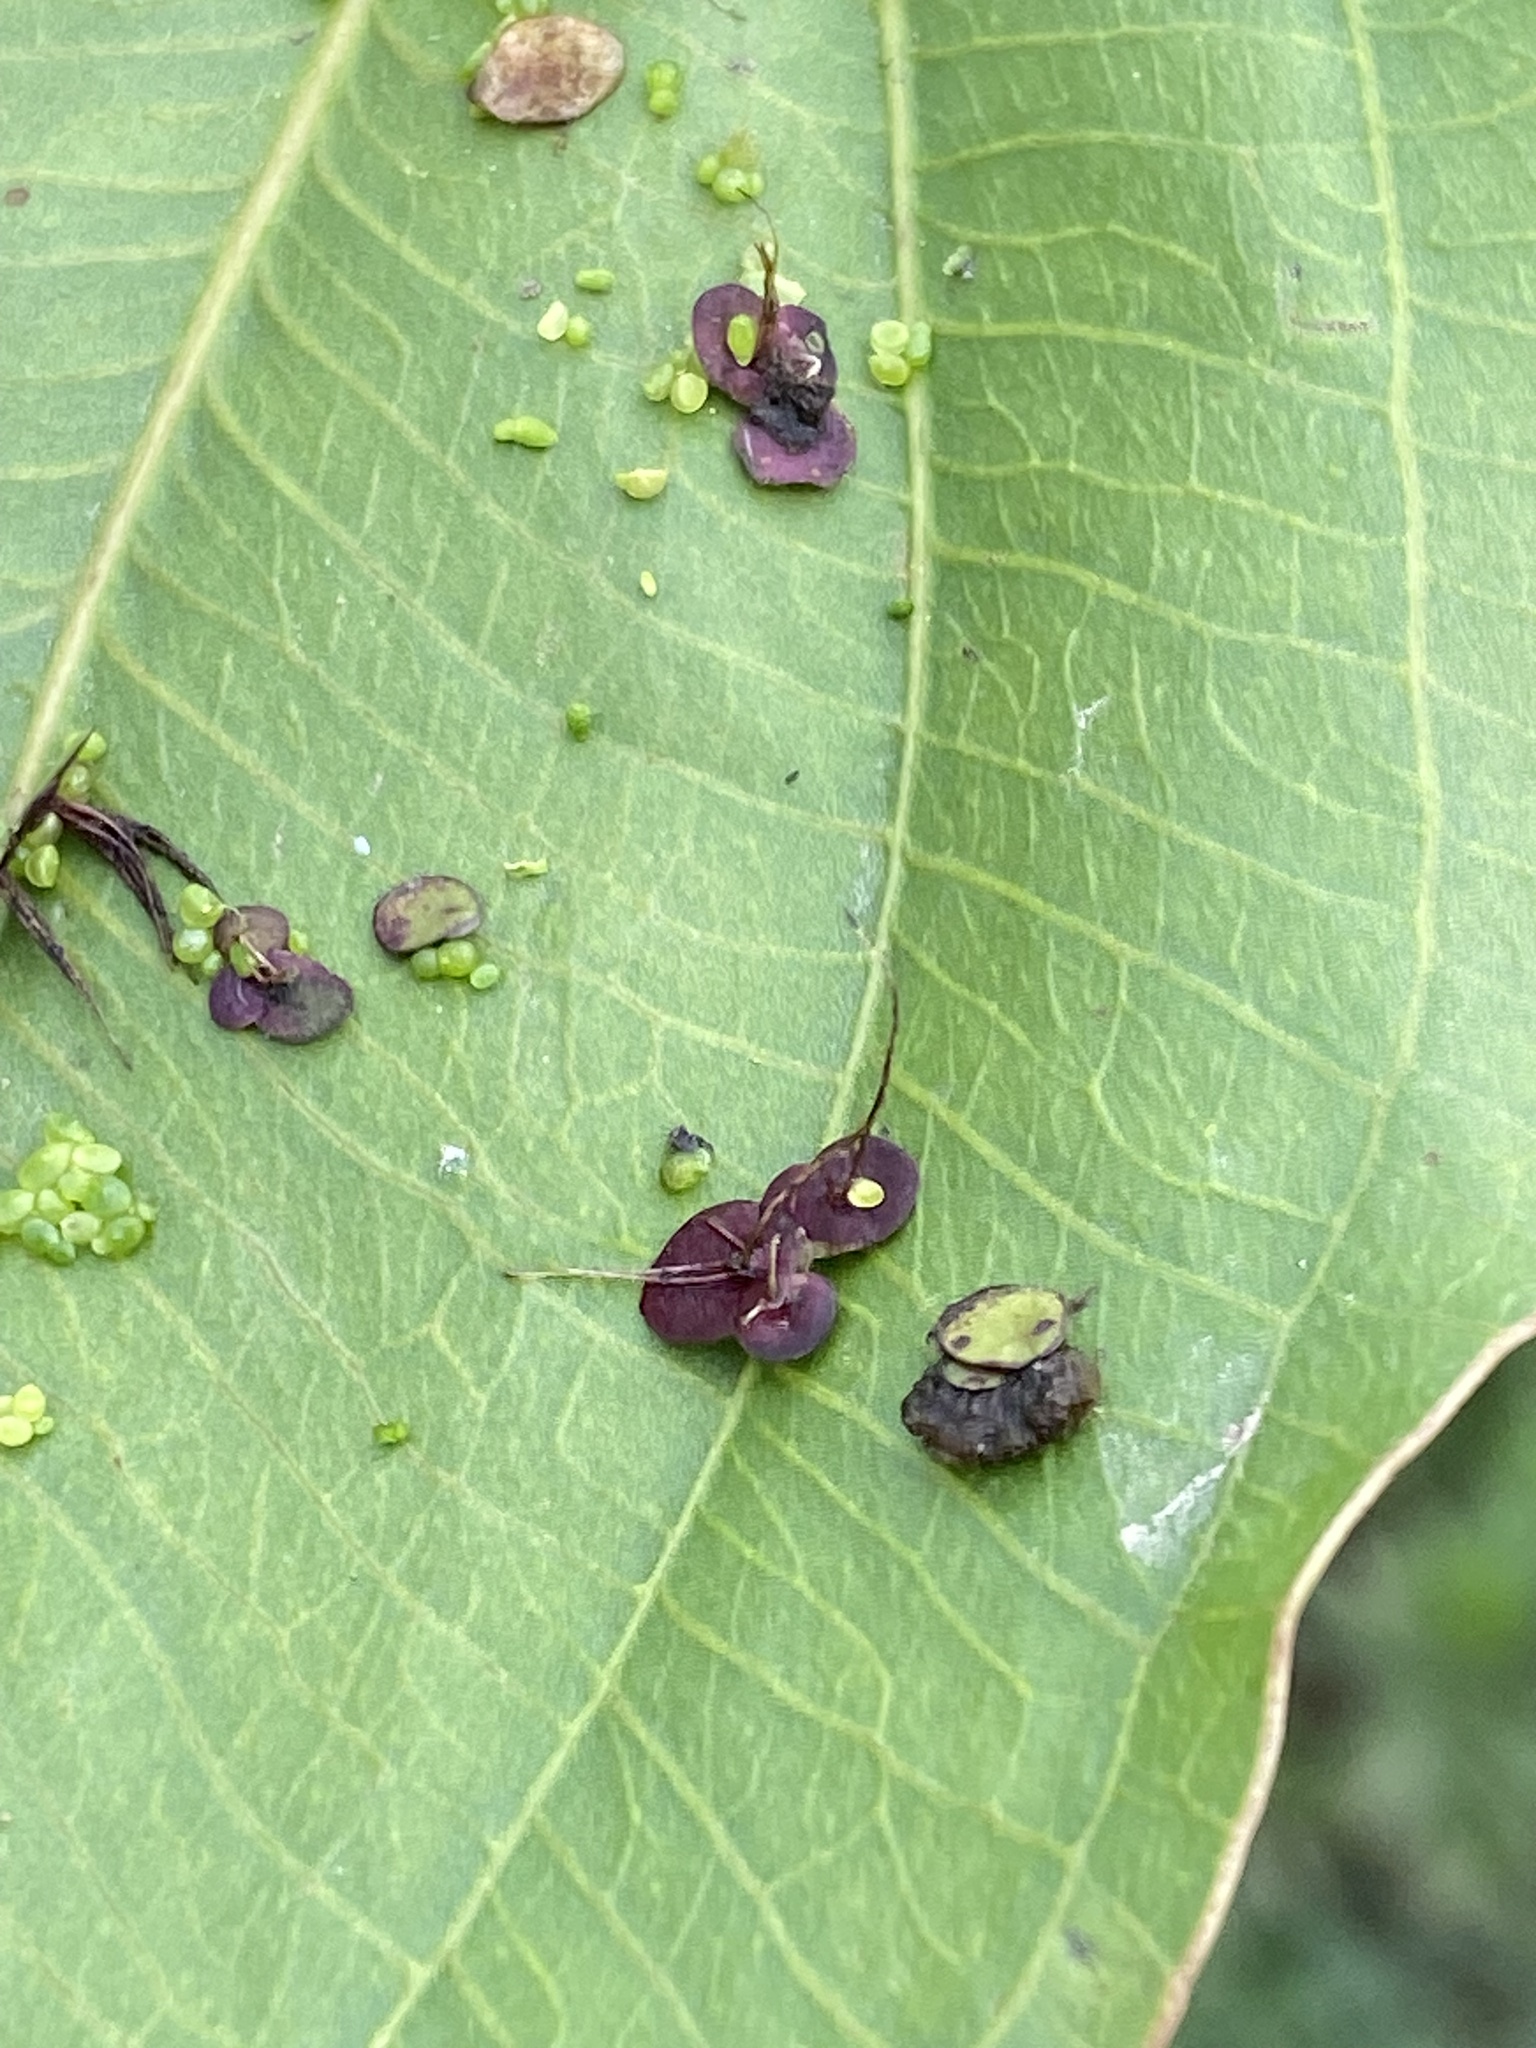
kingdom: Plantae
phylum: Tracheophyta
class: Liliopsida
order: Alismatales
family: Araceae
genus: Spirodela
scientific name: Spirodela polyrhiza
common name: Great duckweed
